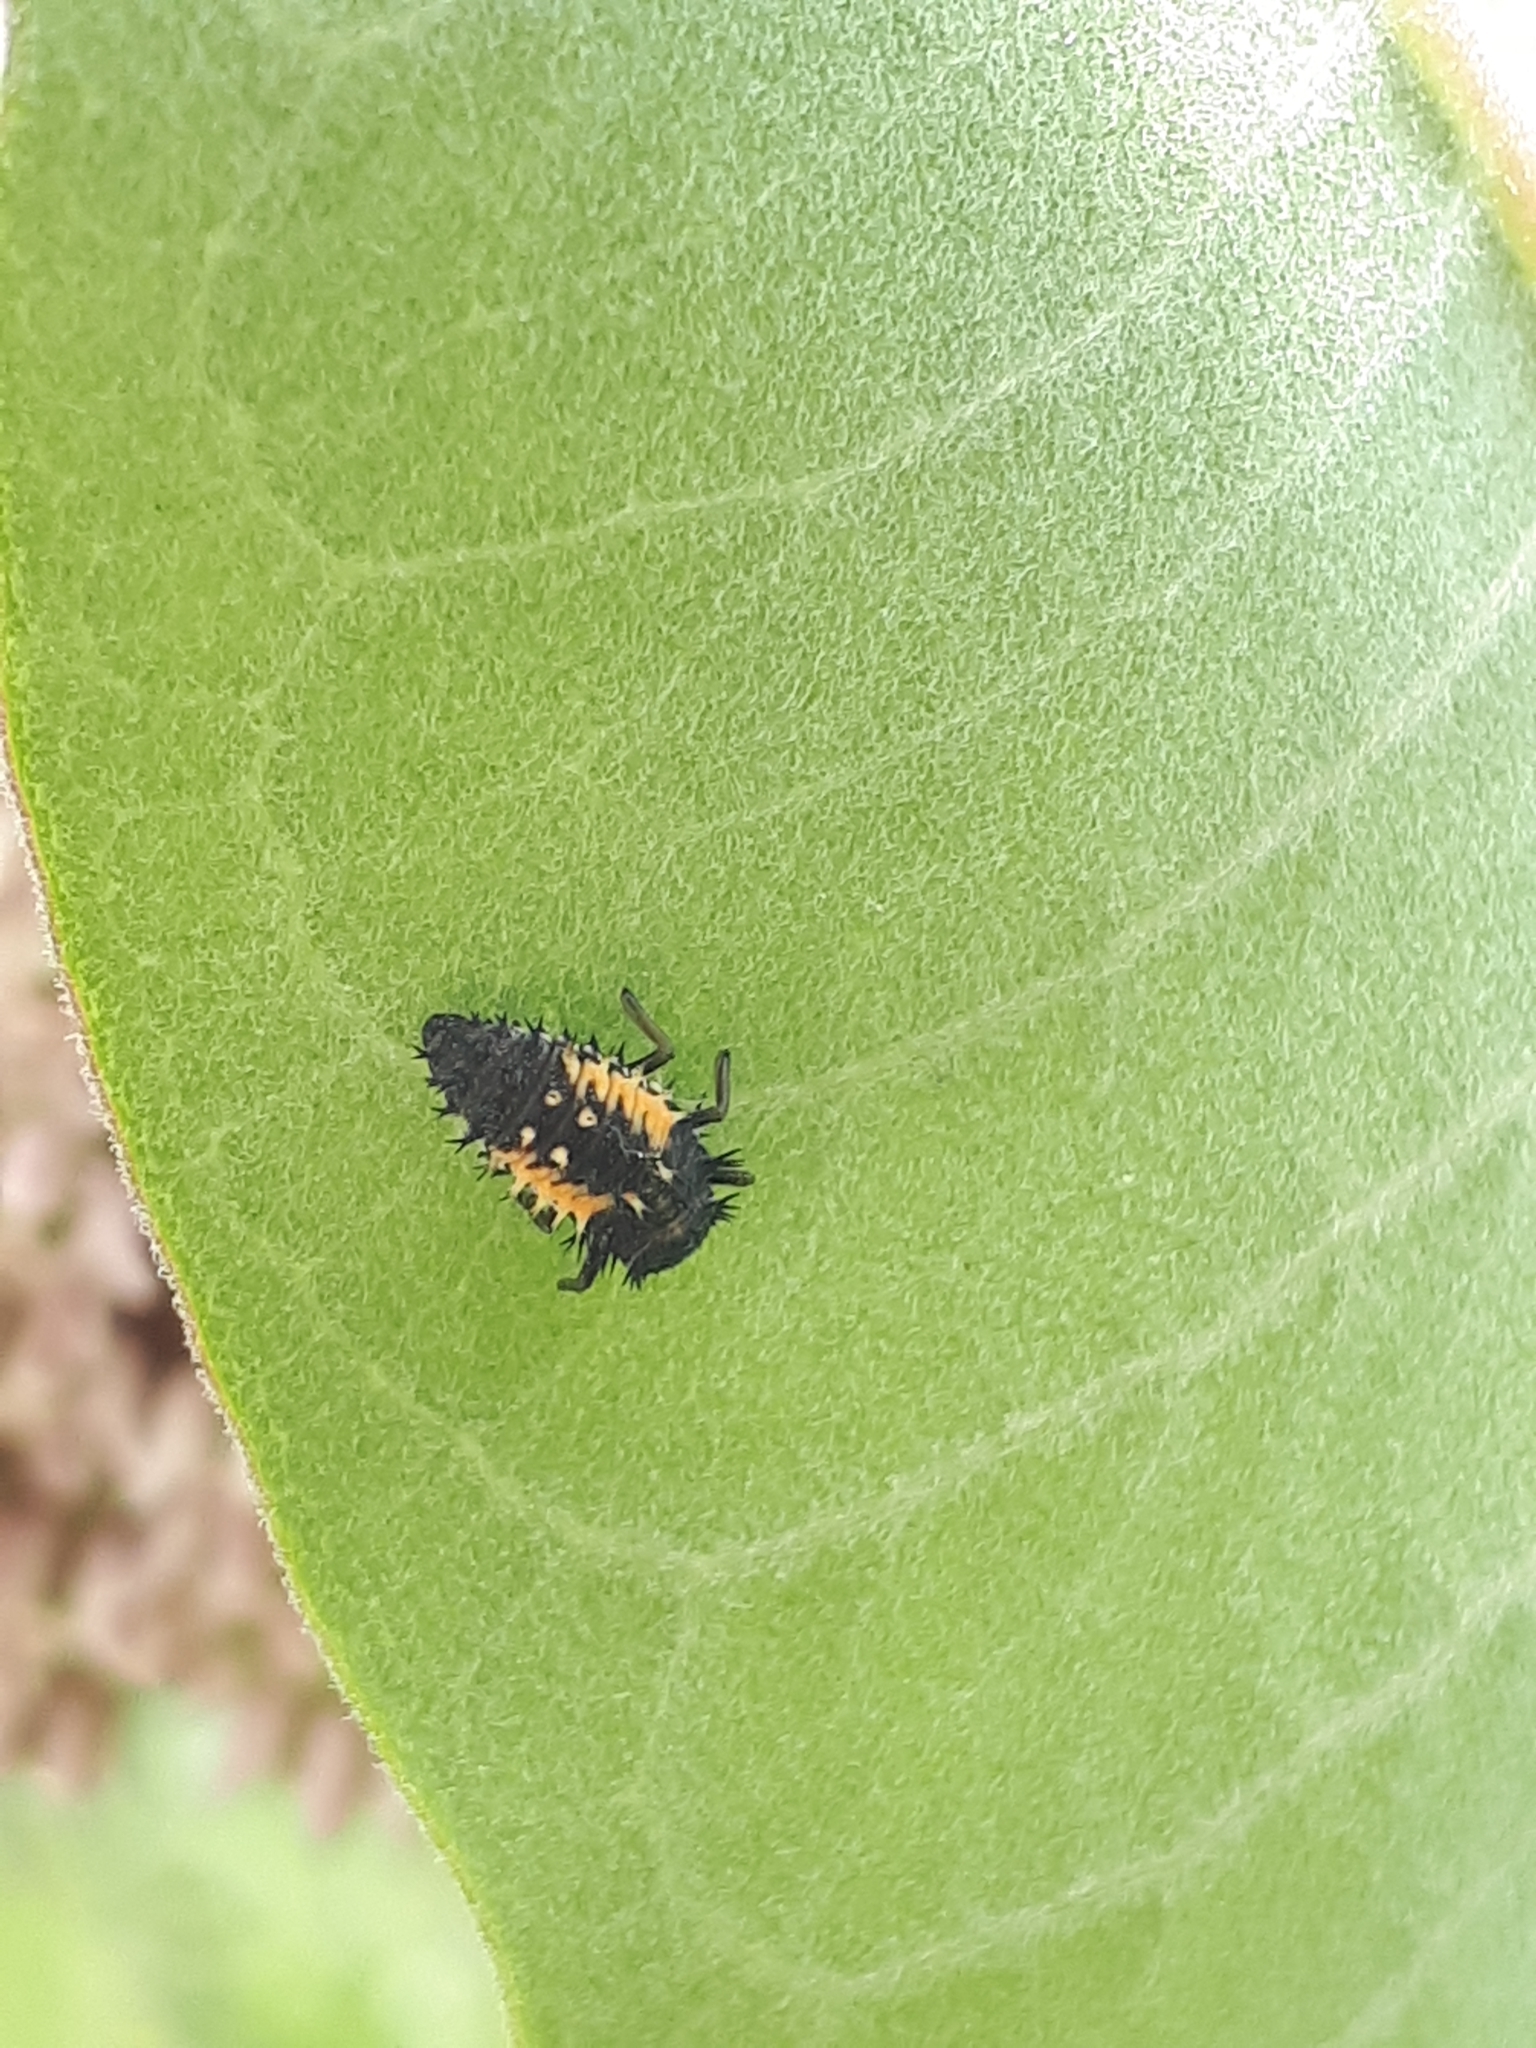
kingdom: Animalia
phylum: Arthropoda
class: Insecta
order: Coleoptera
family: Coccinellidae
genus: Harmonia
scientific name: Harmonia axyridis
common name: Harlequin ladybird
